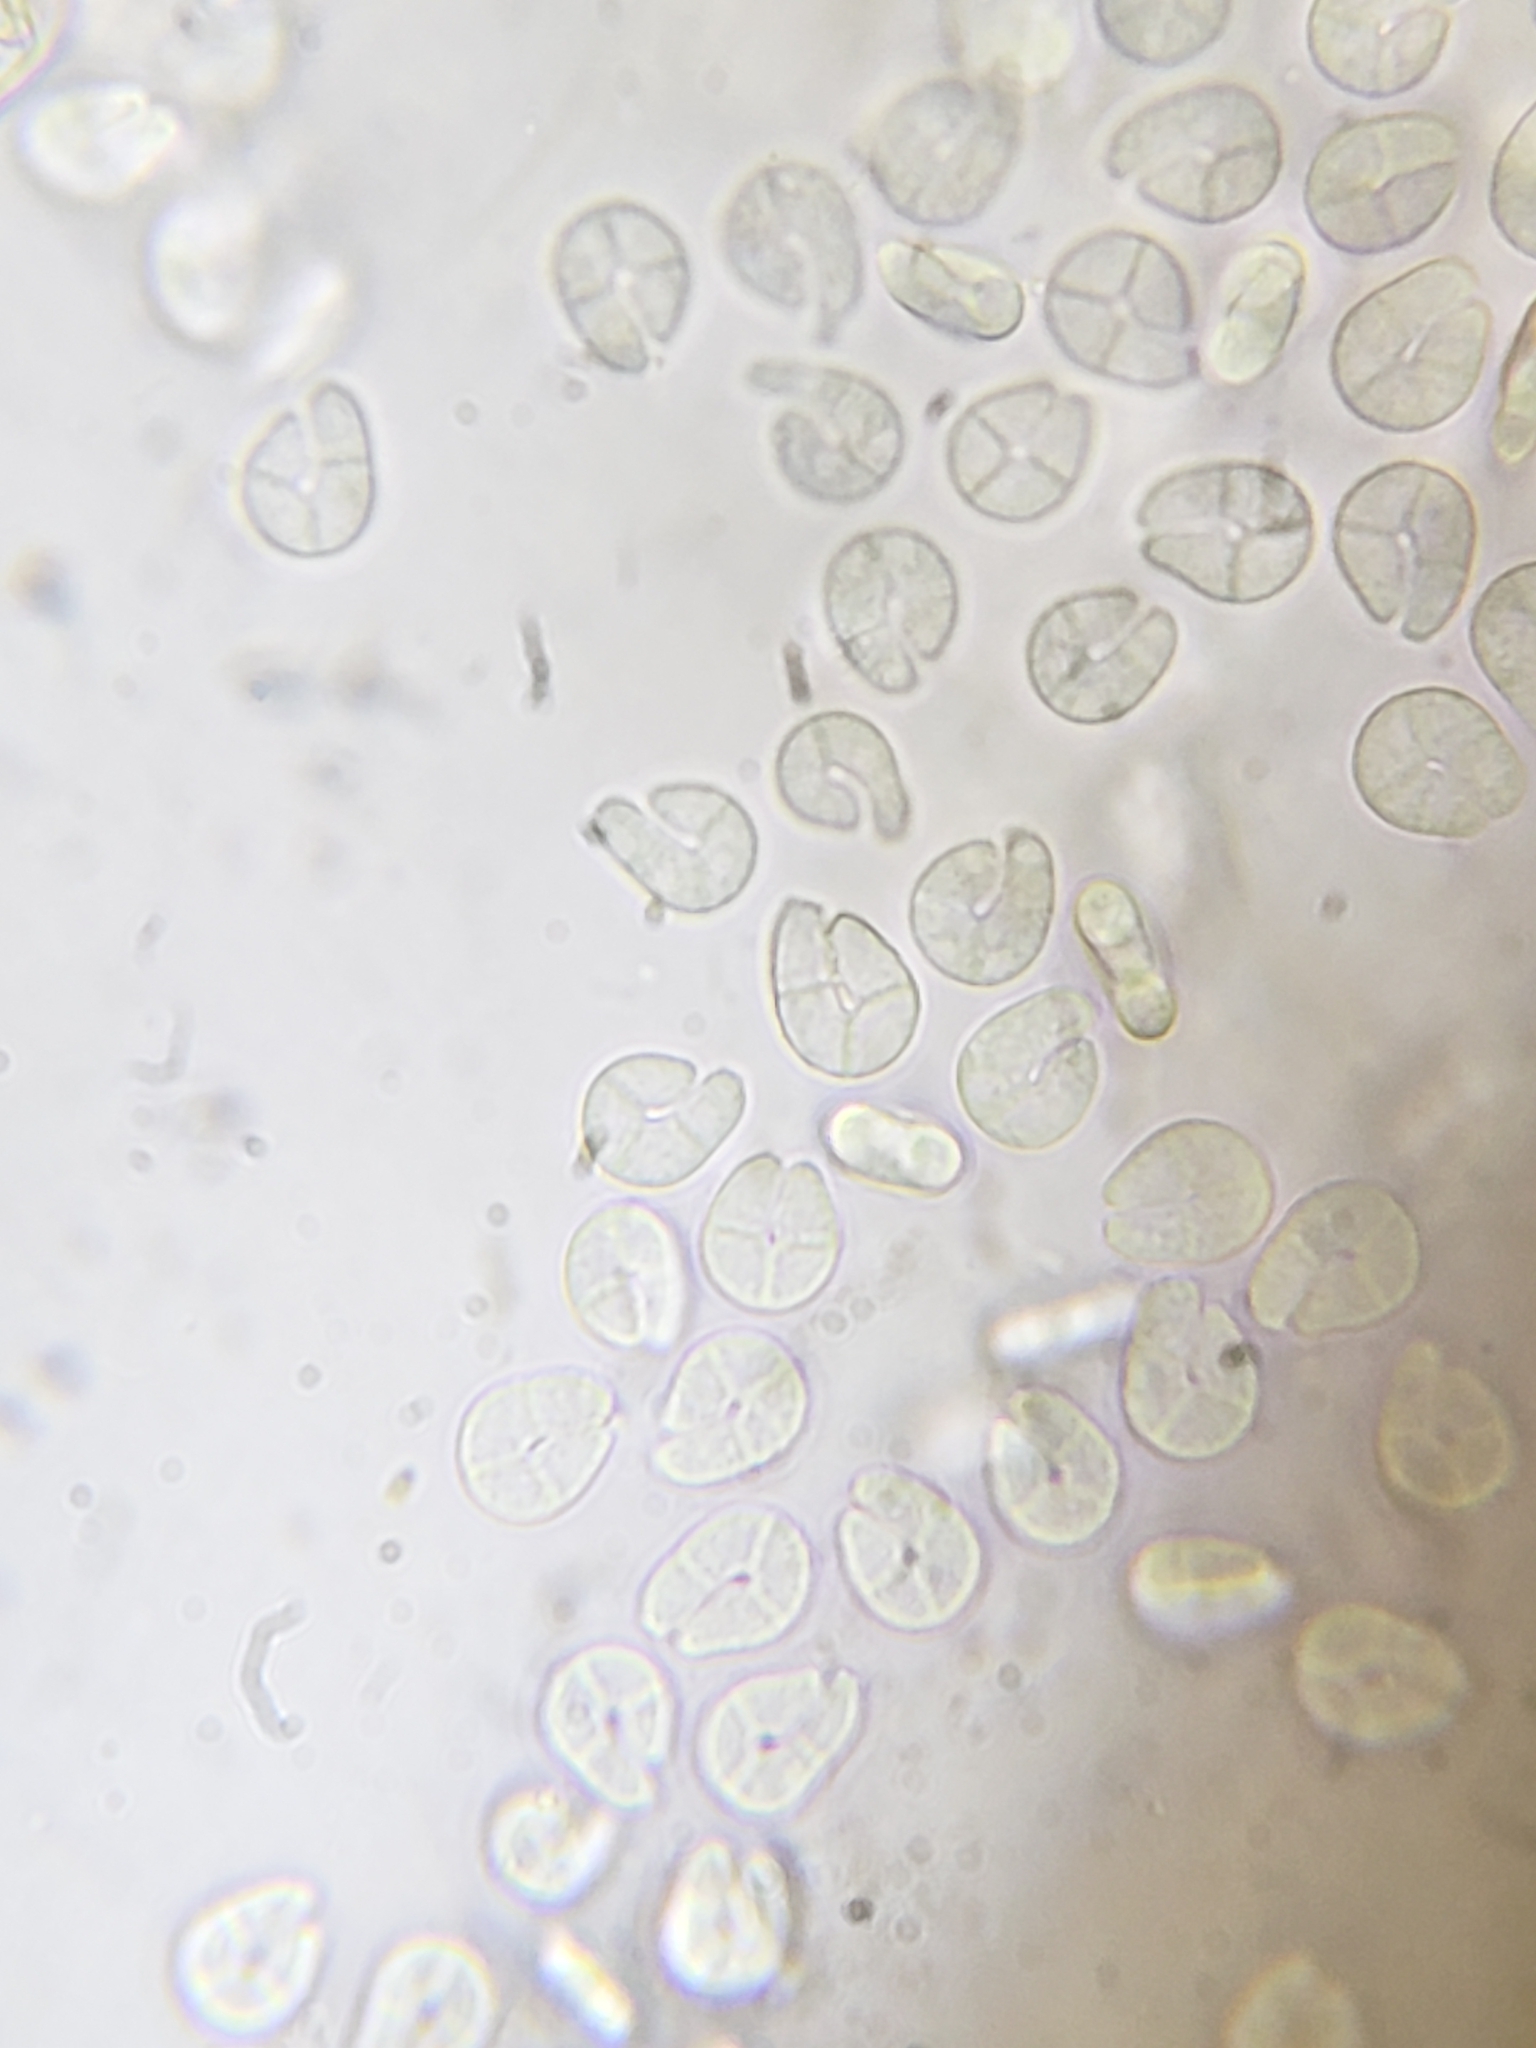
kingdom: Fungi
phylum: Ascomycota
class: Leotiomycetes
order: Helotiales
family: Dermateaceae
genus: Everhartia
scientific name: Everhartia lignatilis
